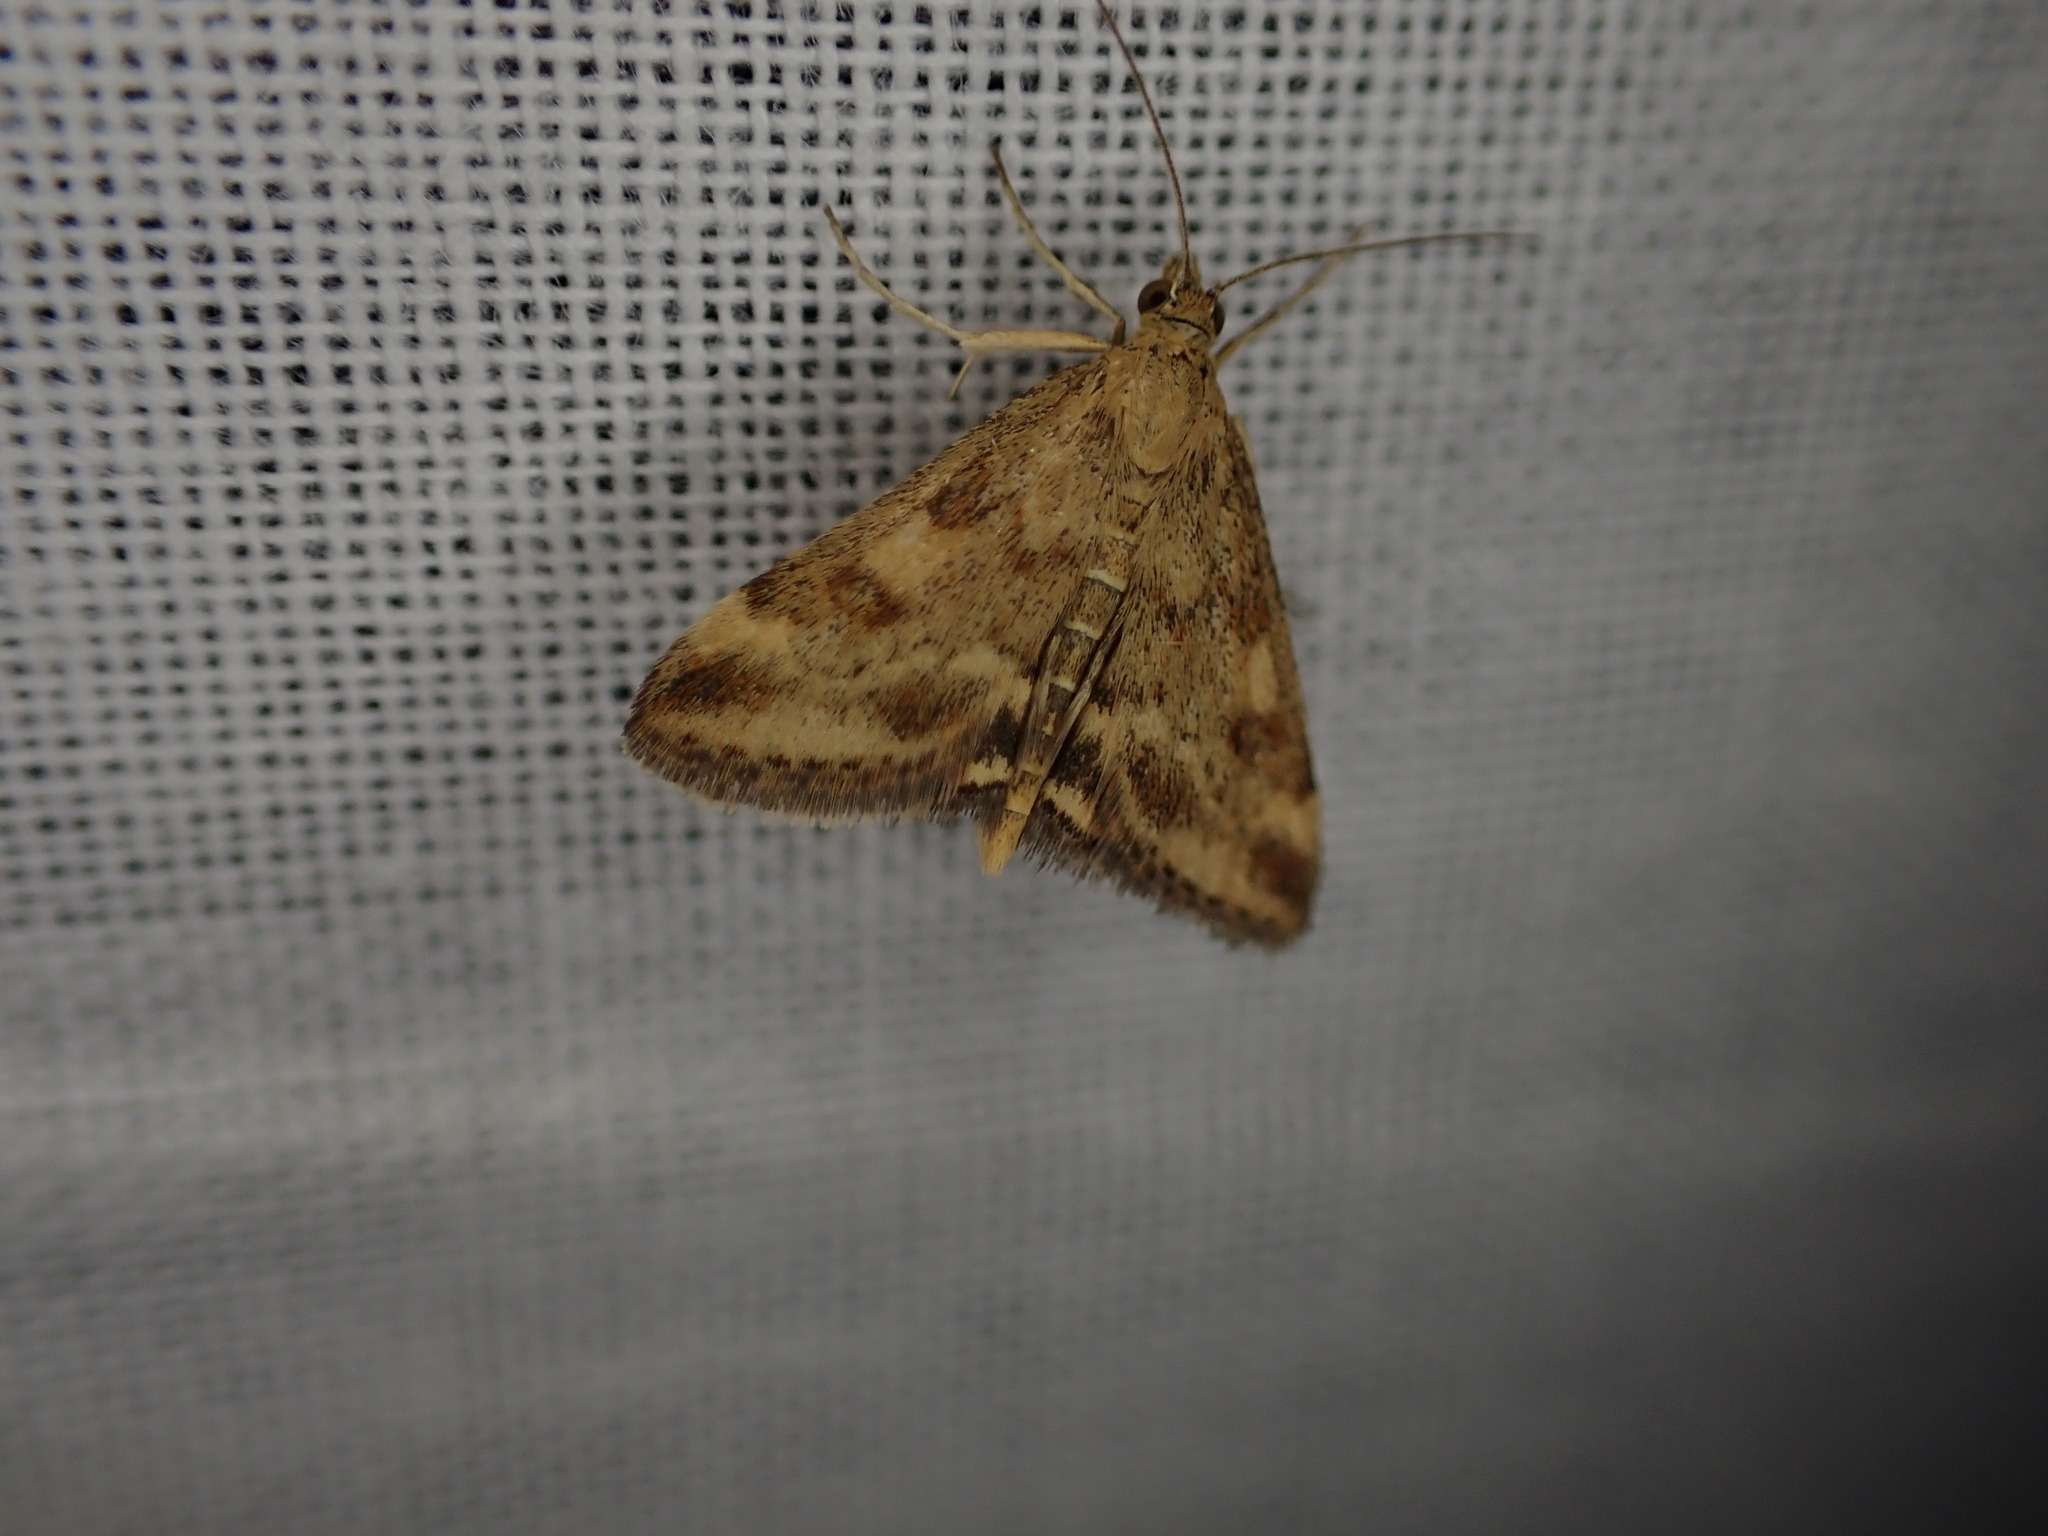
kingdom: Animalia
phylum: Arthropoda
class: Insecta
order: Lepidoptera
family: Crambidae
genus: Pyrausta
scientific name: Pyrausta despicata
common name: Straw-barred pearl
